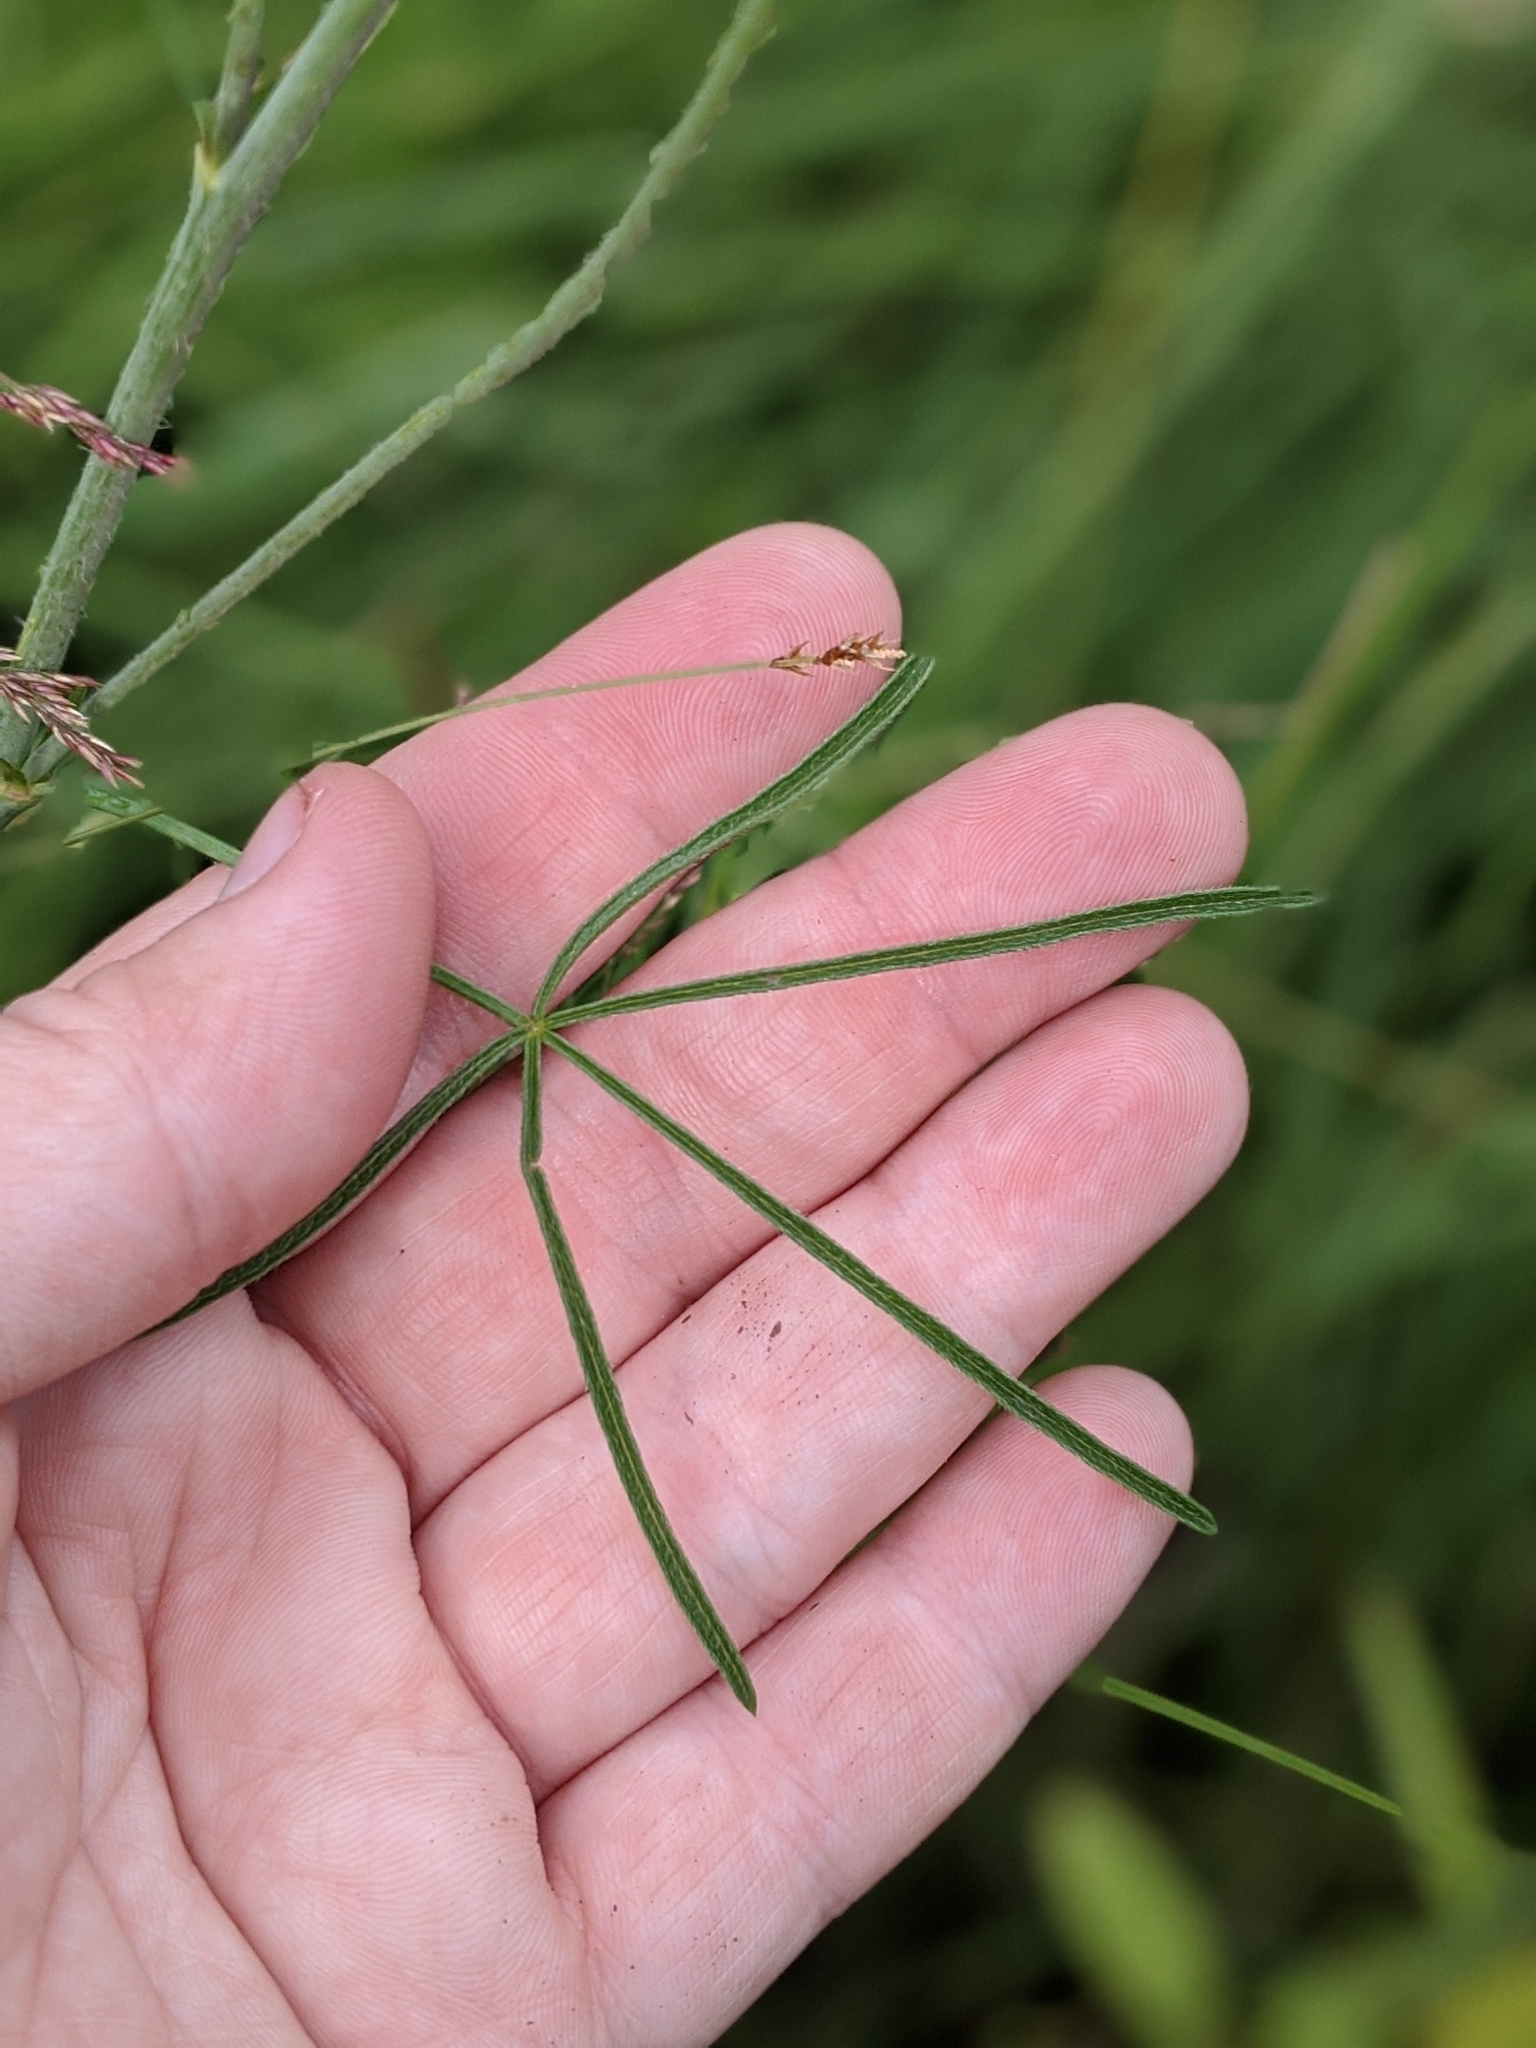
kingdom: Plantae
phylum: Tracheophyta
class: Magnoliopsida
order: Malvales
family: Malvaceae
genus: Sidalcea
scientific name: Sidalcea neomexicana
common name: New mexico checker
